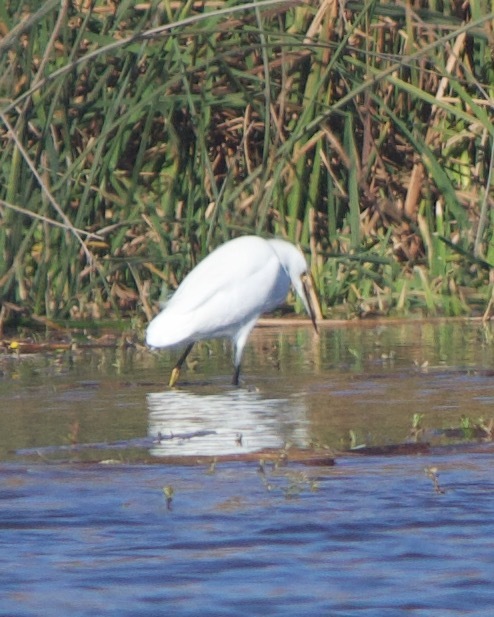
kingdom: Animalia
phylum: Chordata
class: Aves
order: Pelecaniformes
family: Ardeidae
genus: Egretta
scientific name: Egretta thula
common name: Snowy egret
